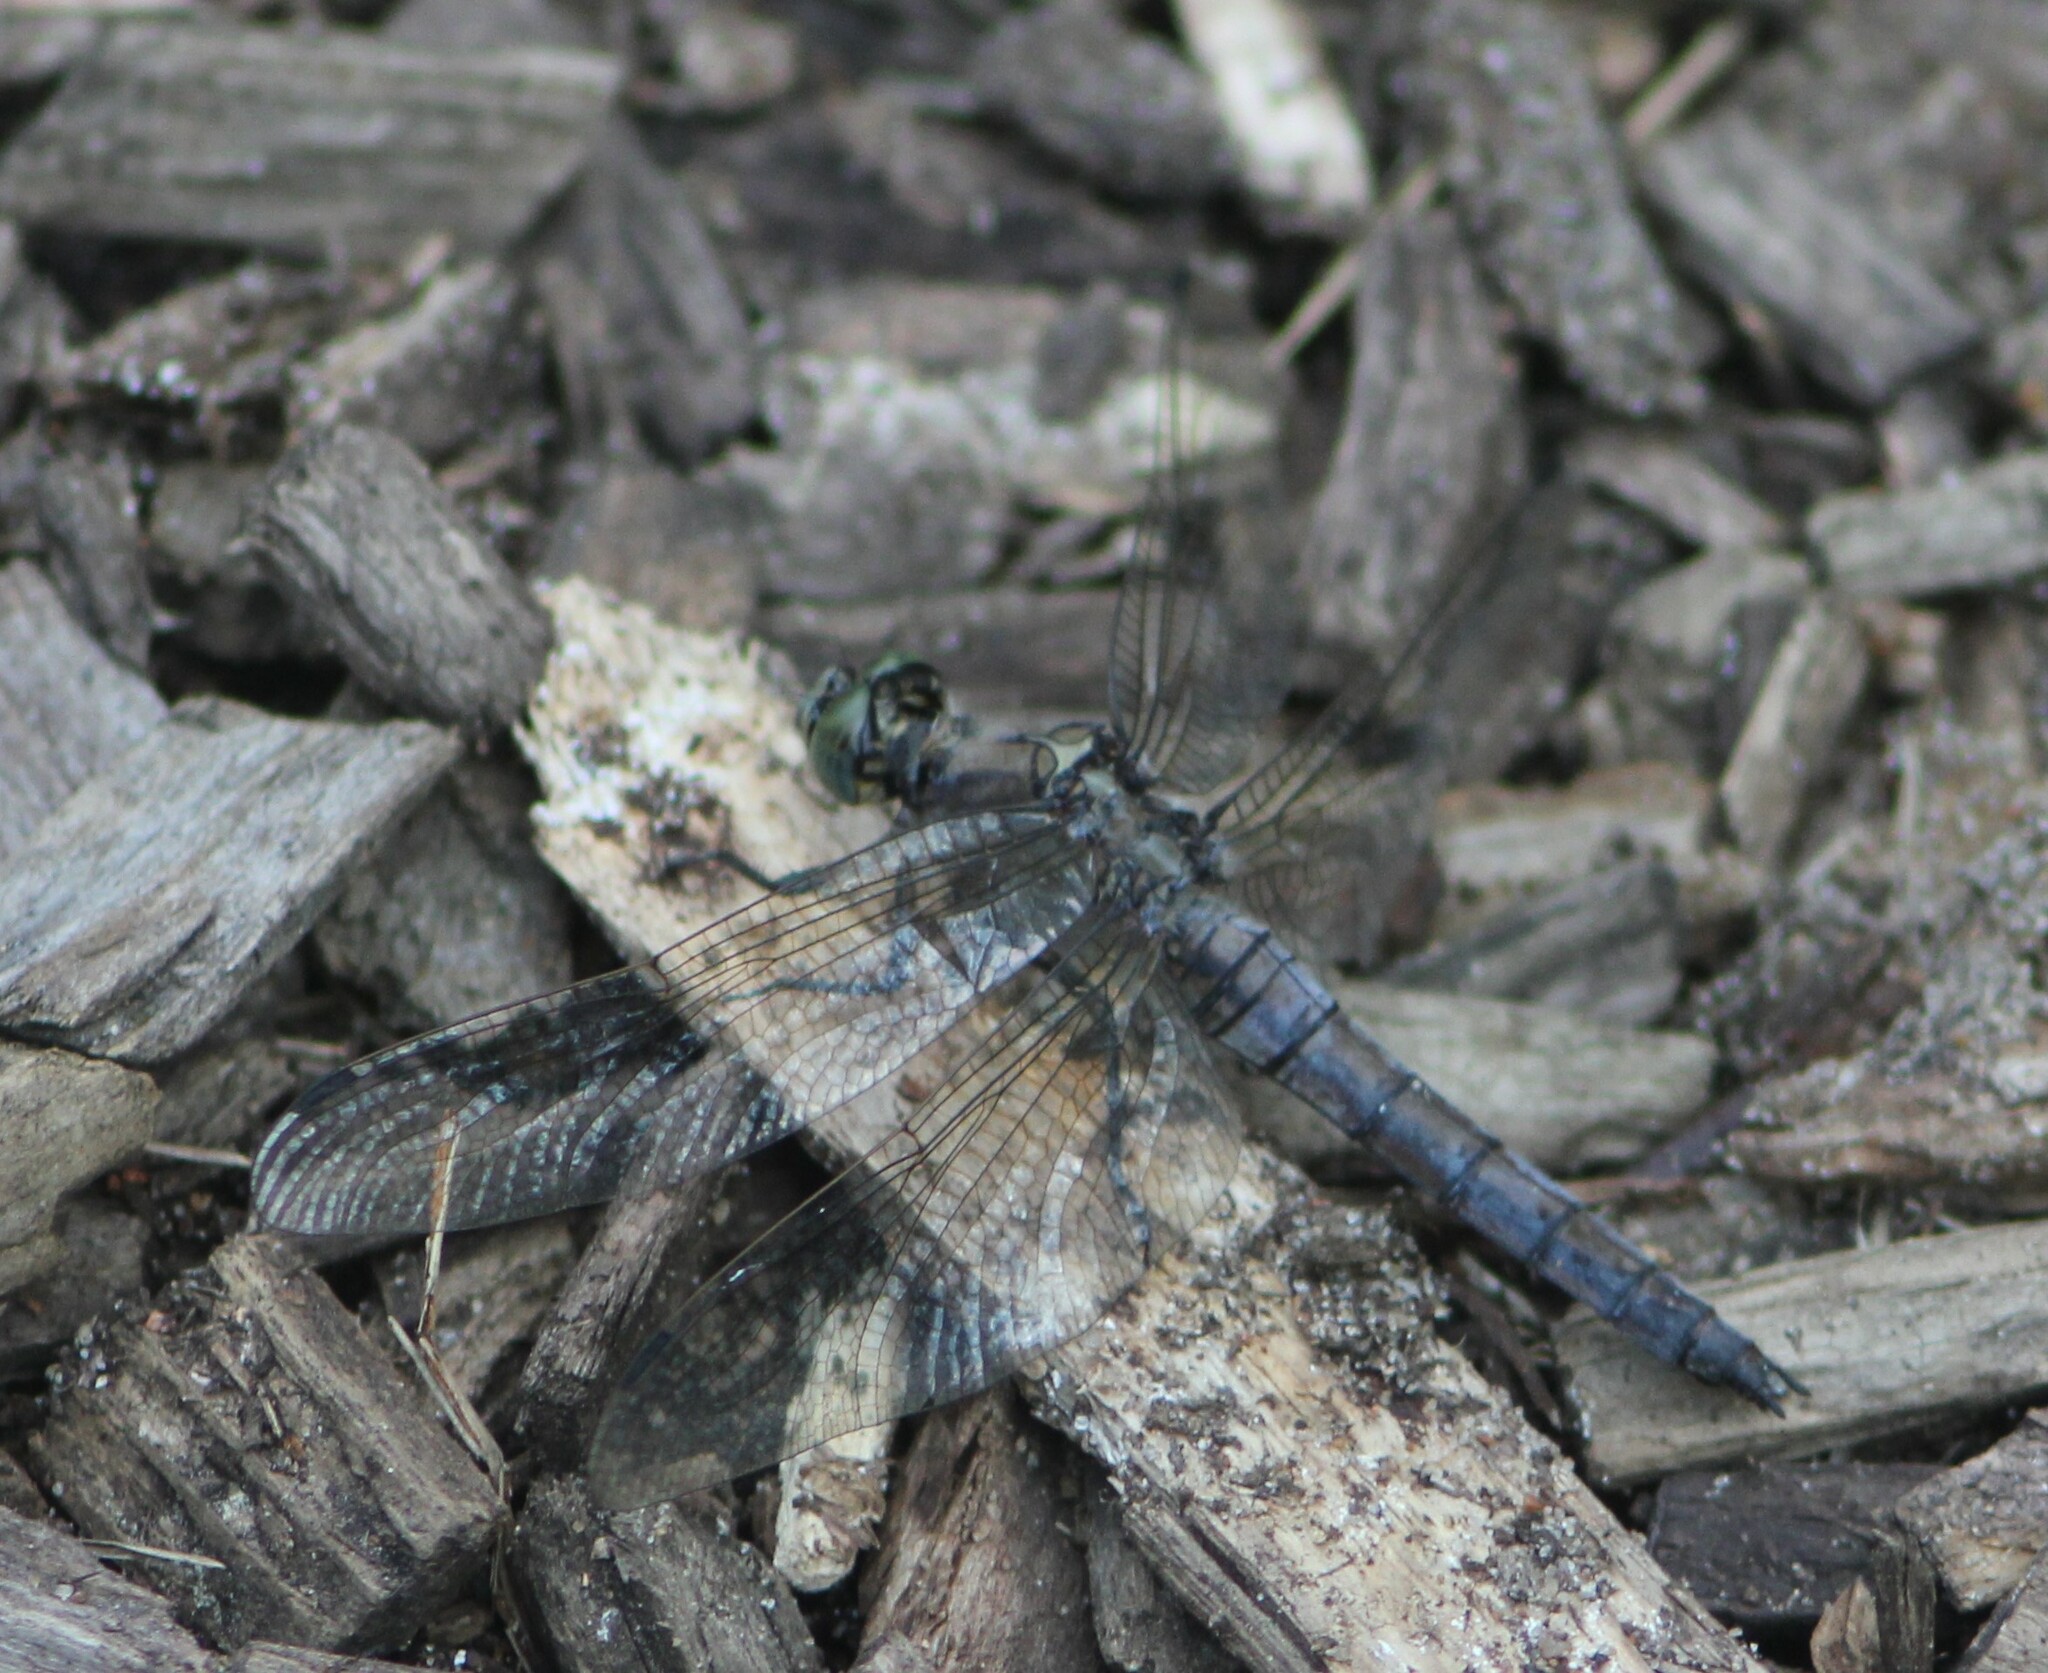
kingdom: Animalia
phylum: Arthropoda
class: Insecta
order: Odonata
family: Libellulidae
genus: Orthetrum
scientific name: Orthetrum cancellatum
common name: Black-tailed skimmer
